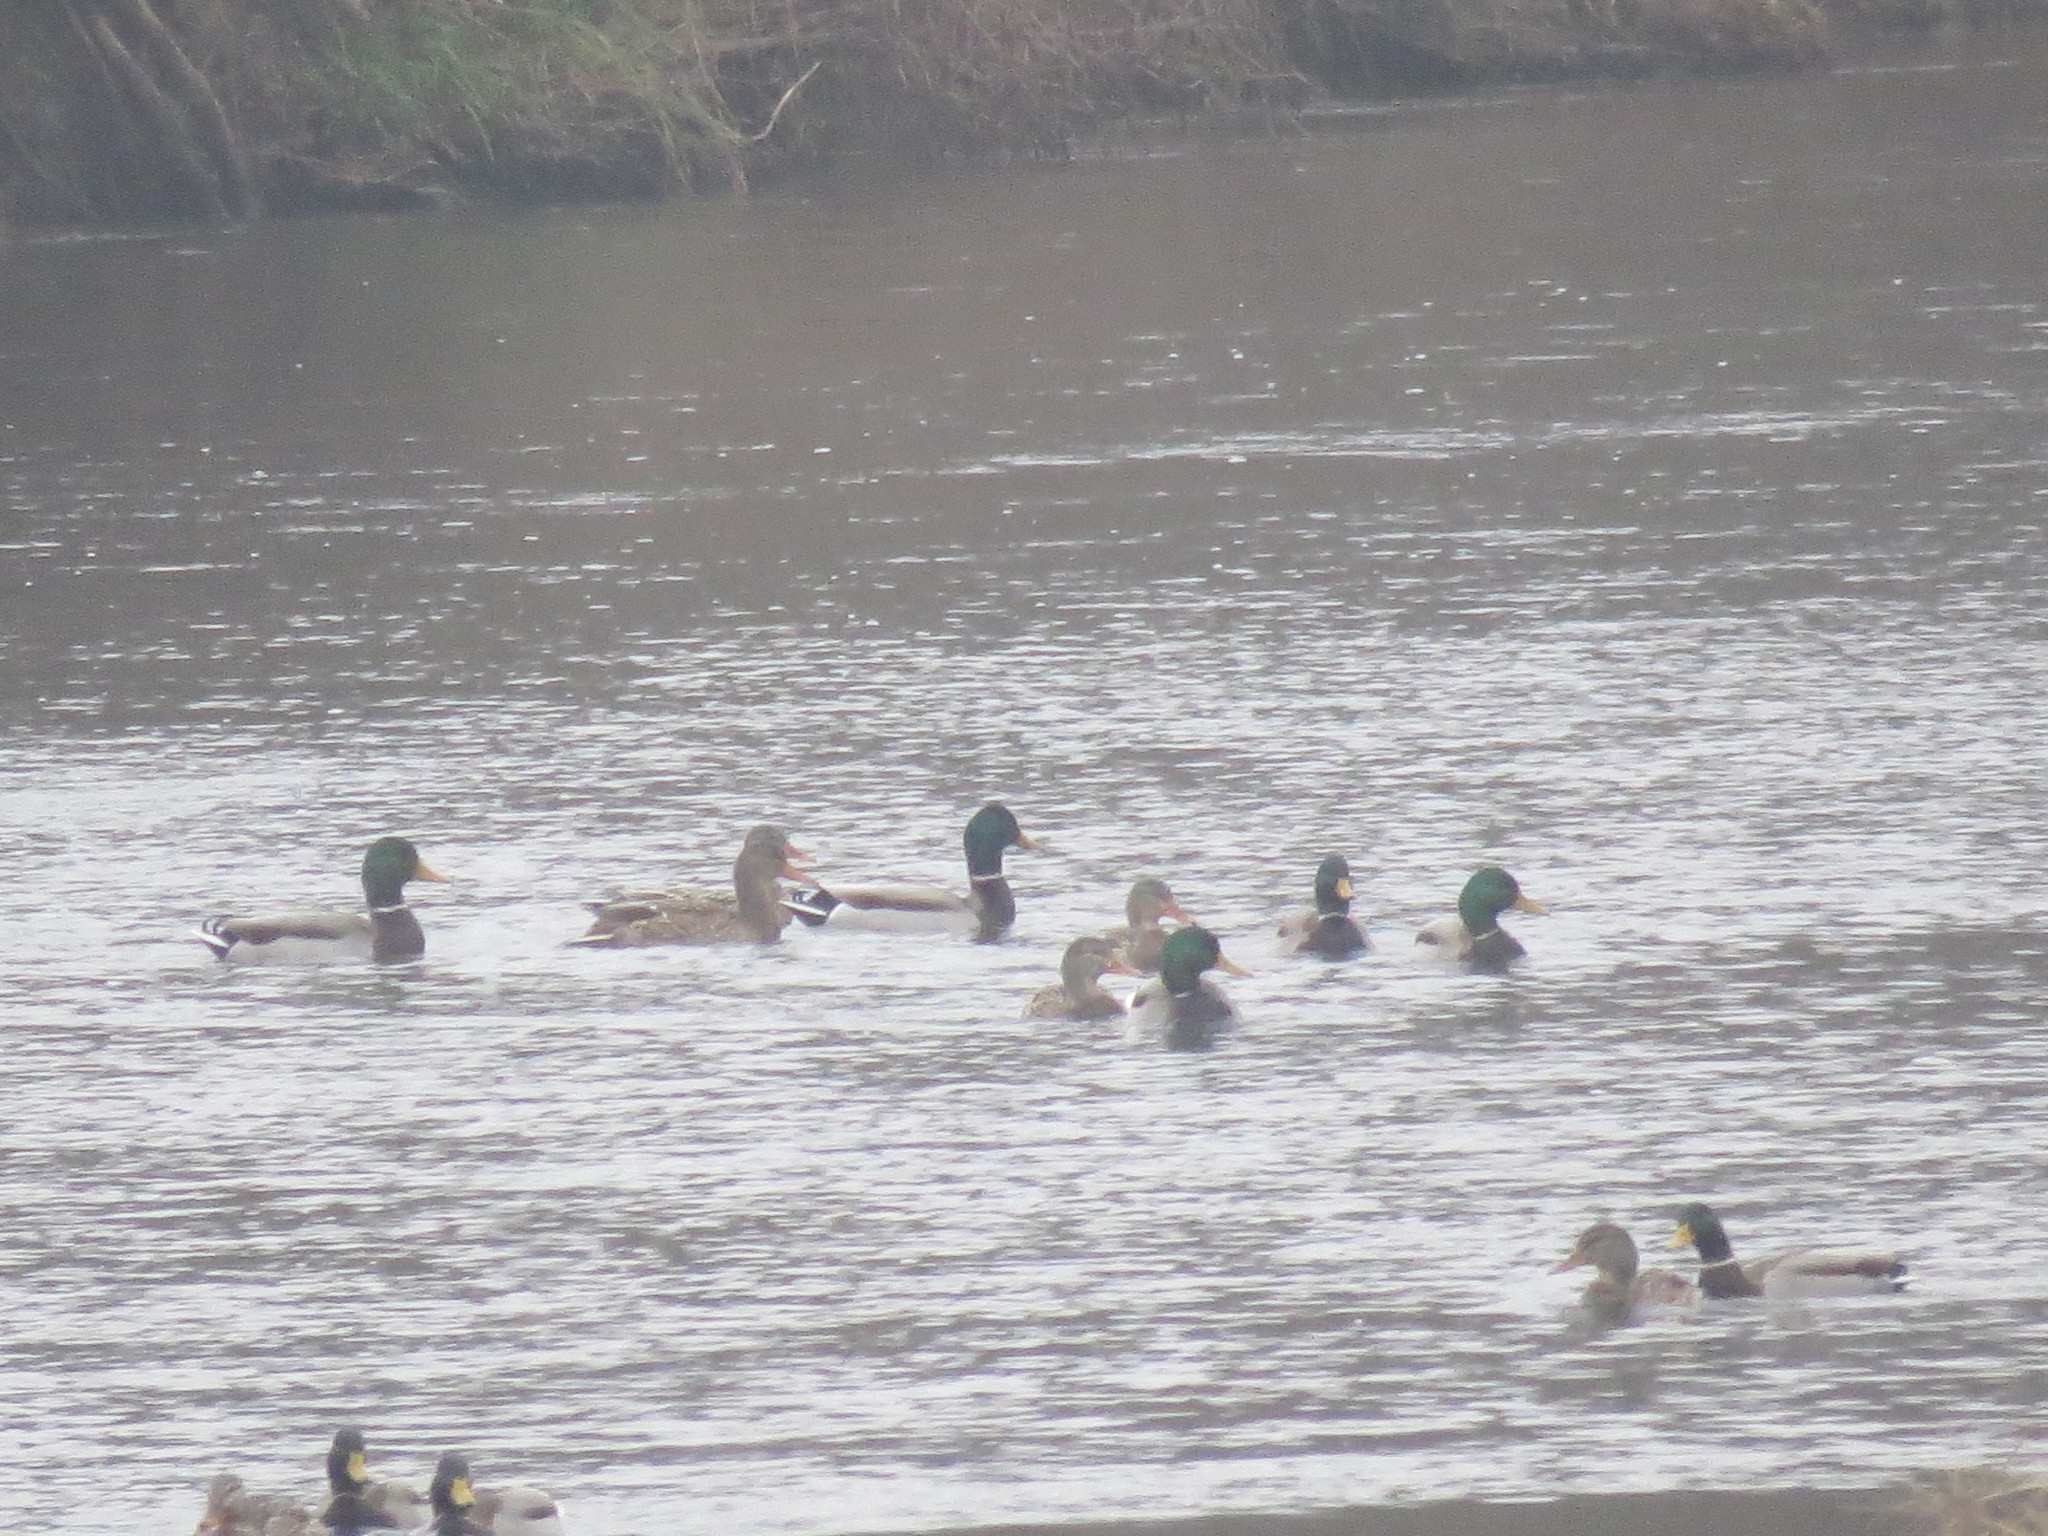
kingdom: Animalia
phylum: Chordata
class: Aves
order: Anseriformes
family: Anatidae
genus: Anas
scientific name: Anas platyrhynchos
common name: Mallard
